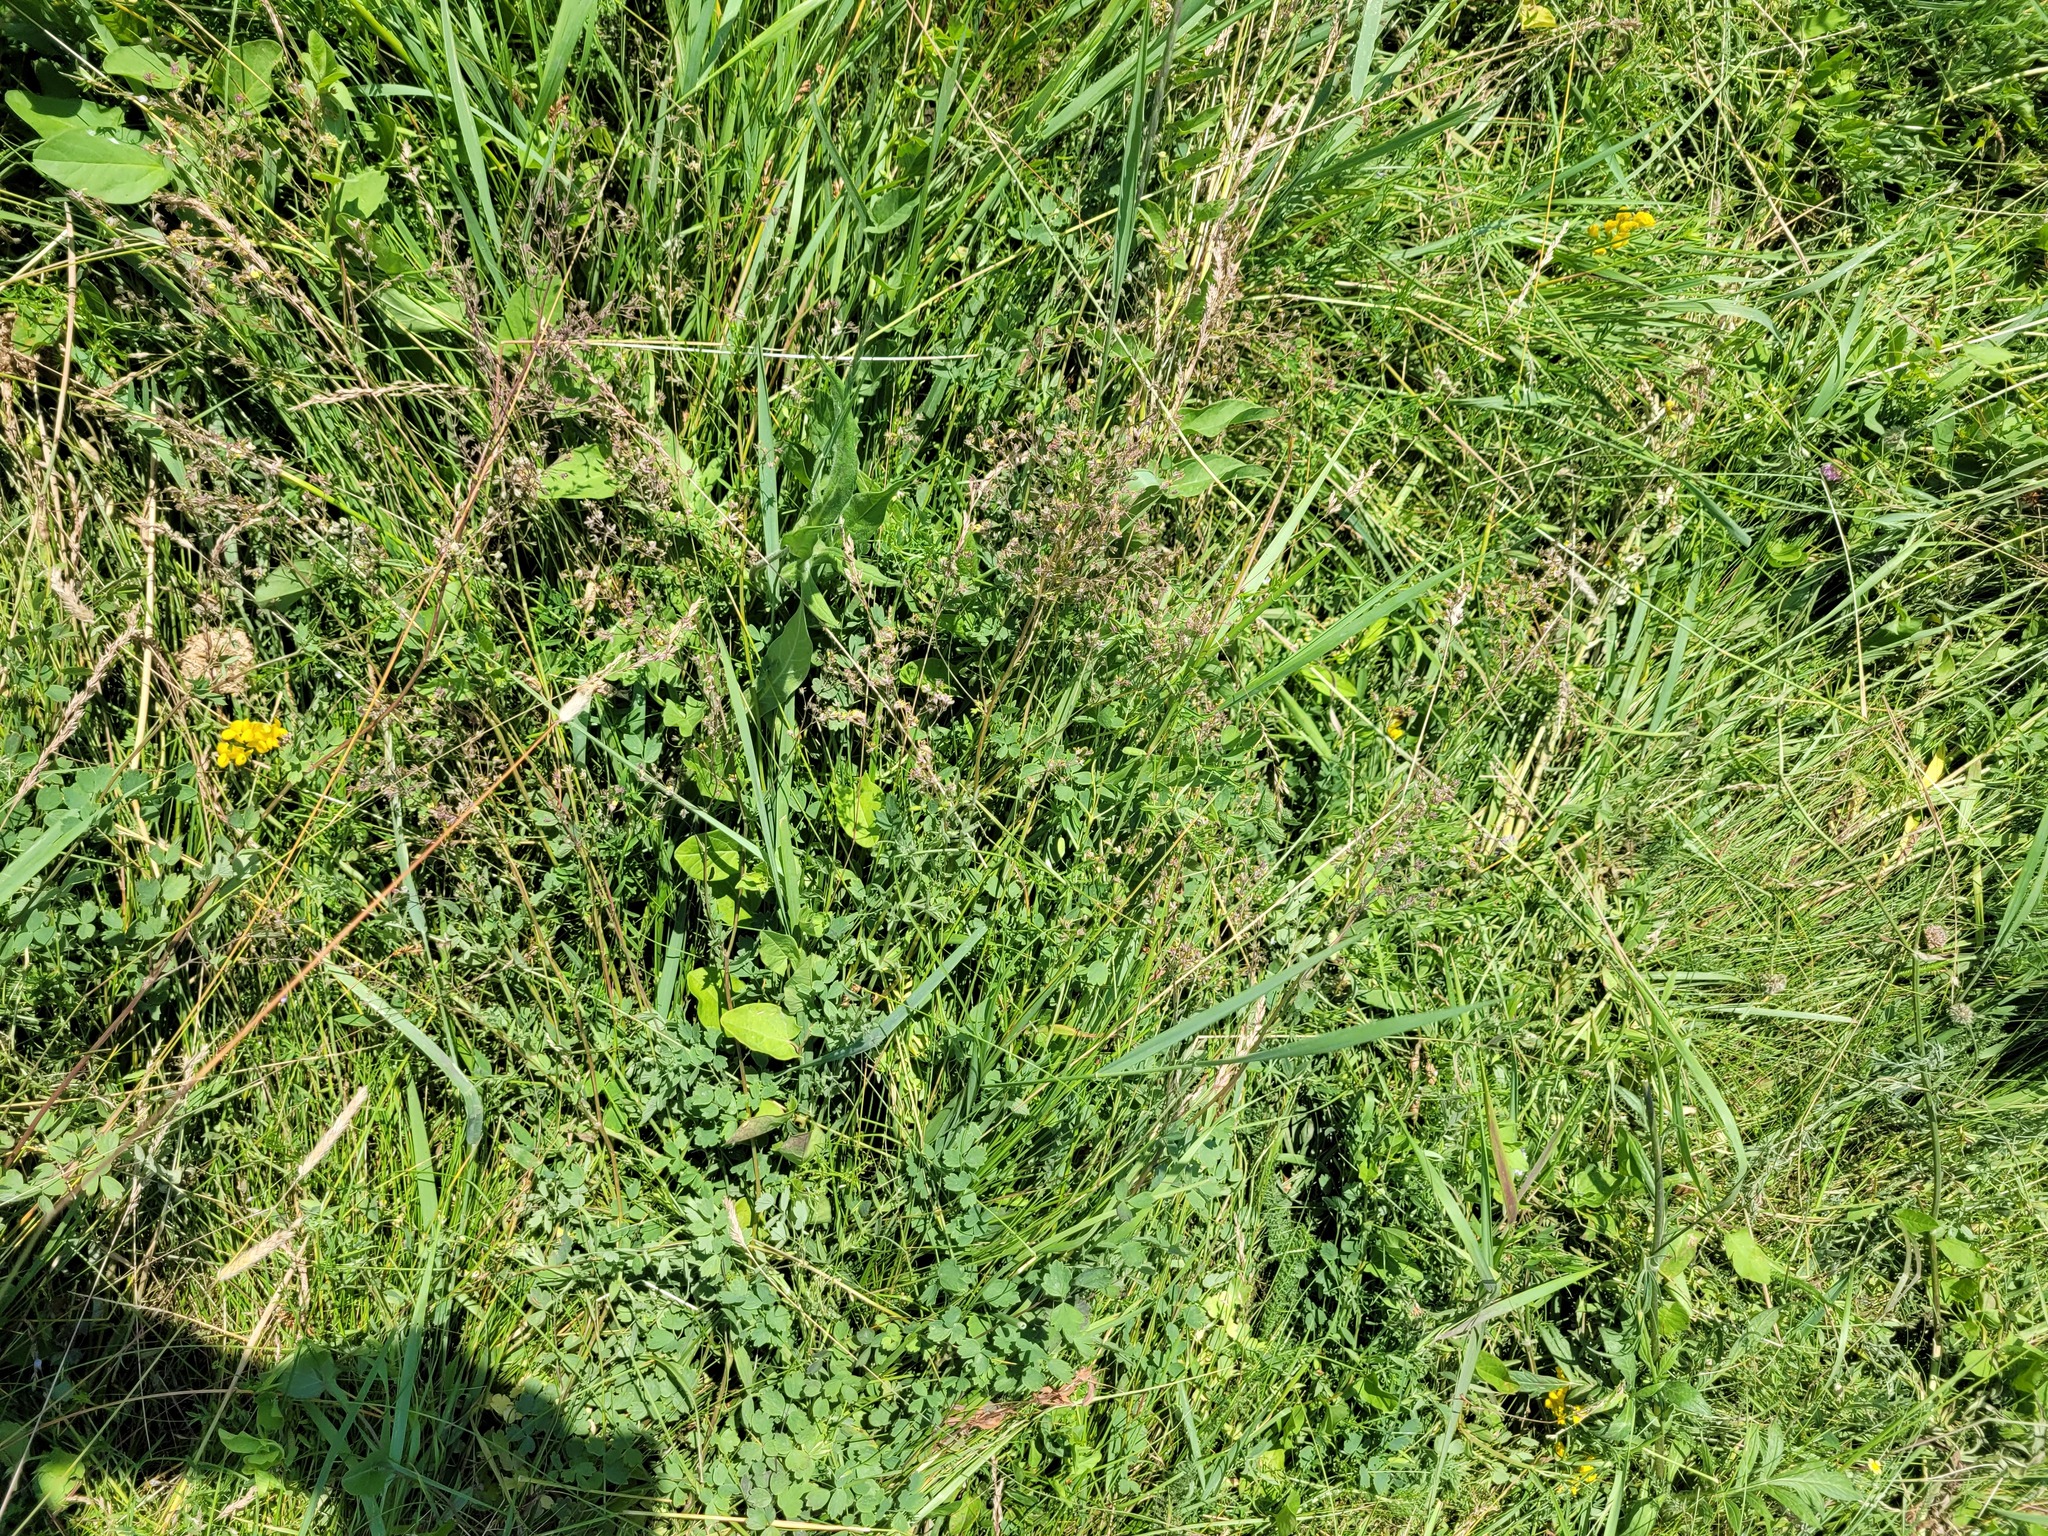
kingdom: Plantae
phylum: Tracheophyta
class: Magnoliopsida
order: Ranunculales
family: Ranunculaceae
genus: Thalictrum
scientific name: Thalictrum minus
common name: Lesser meadow-rue
